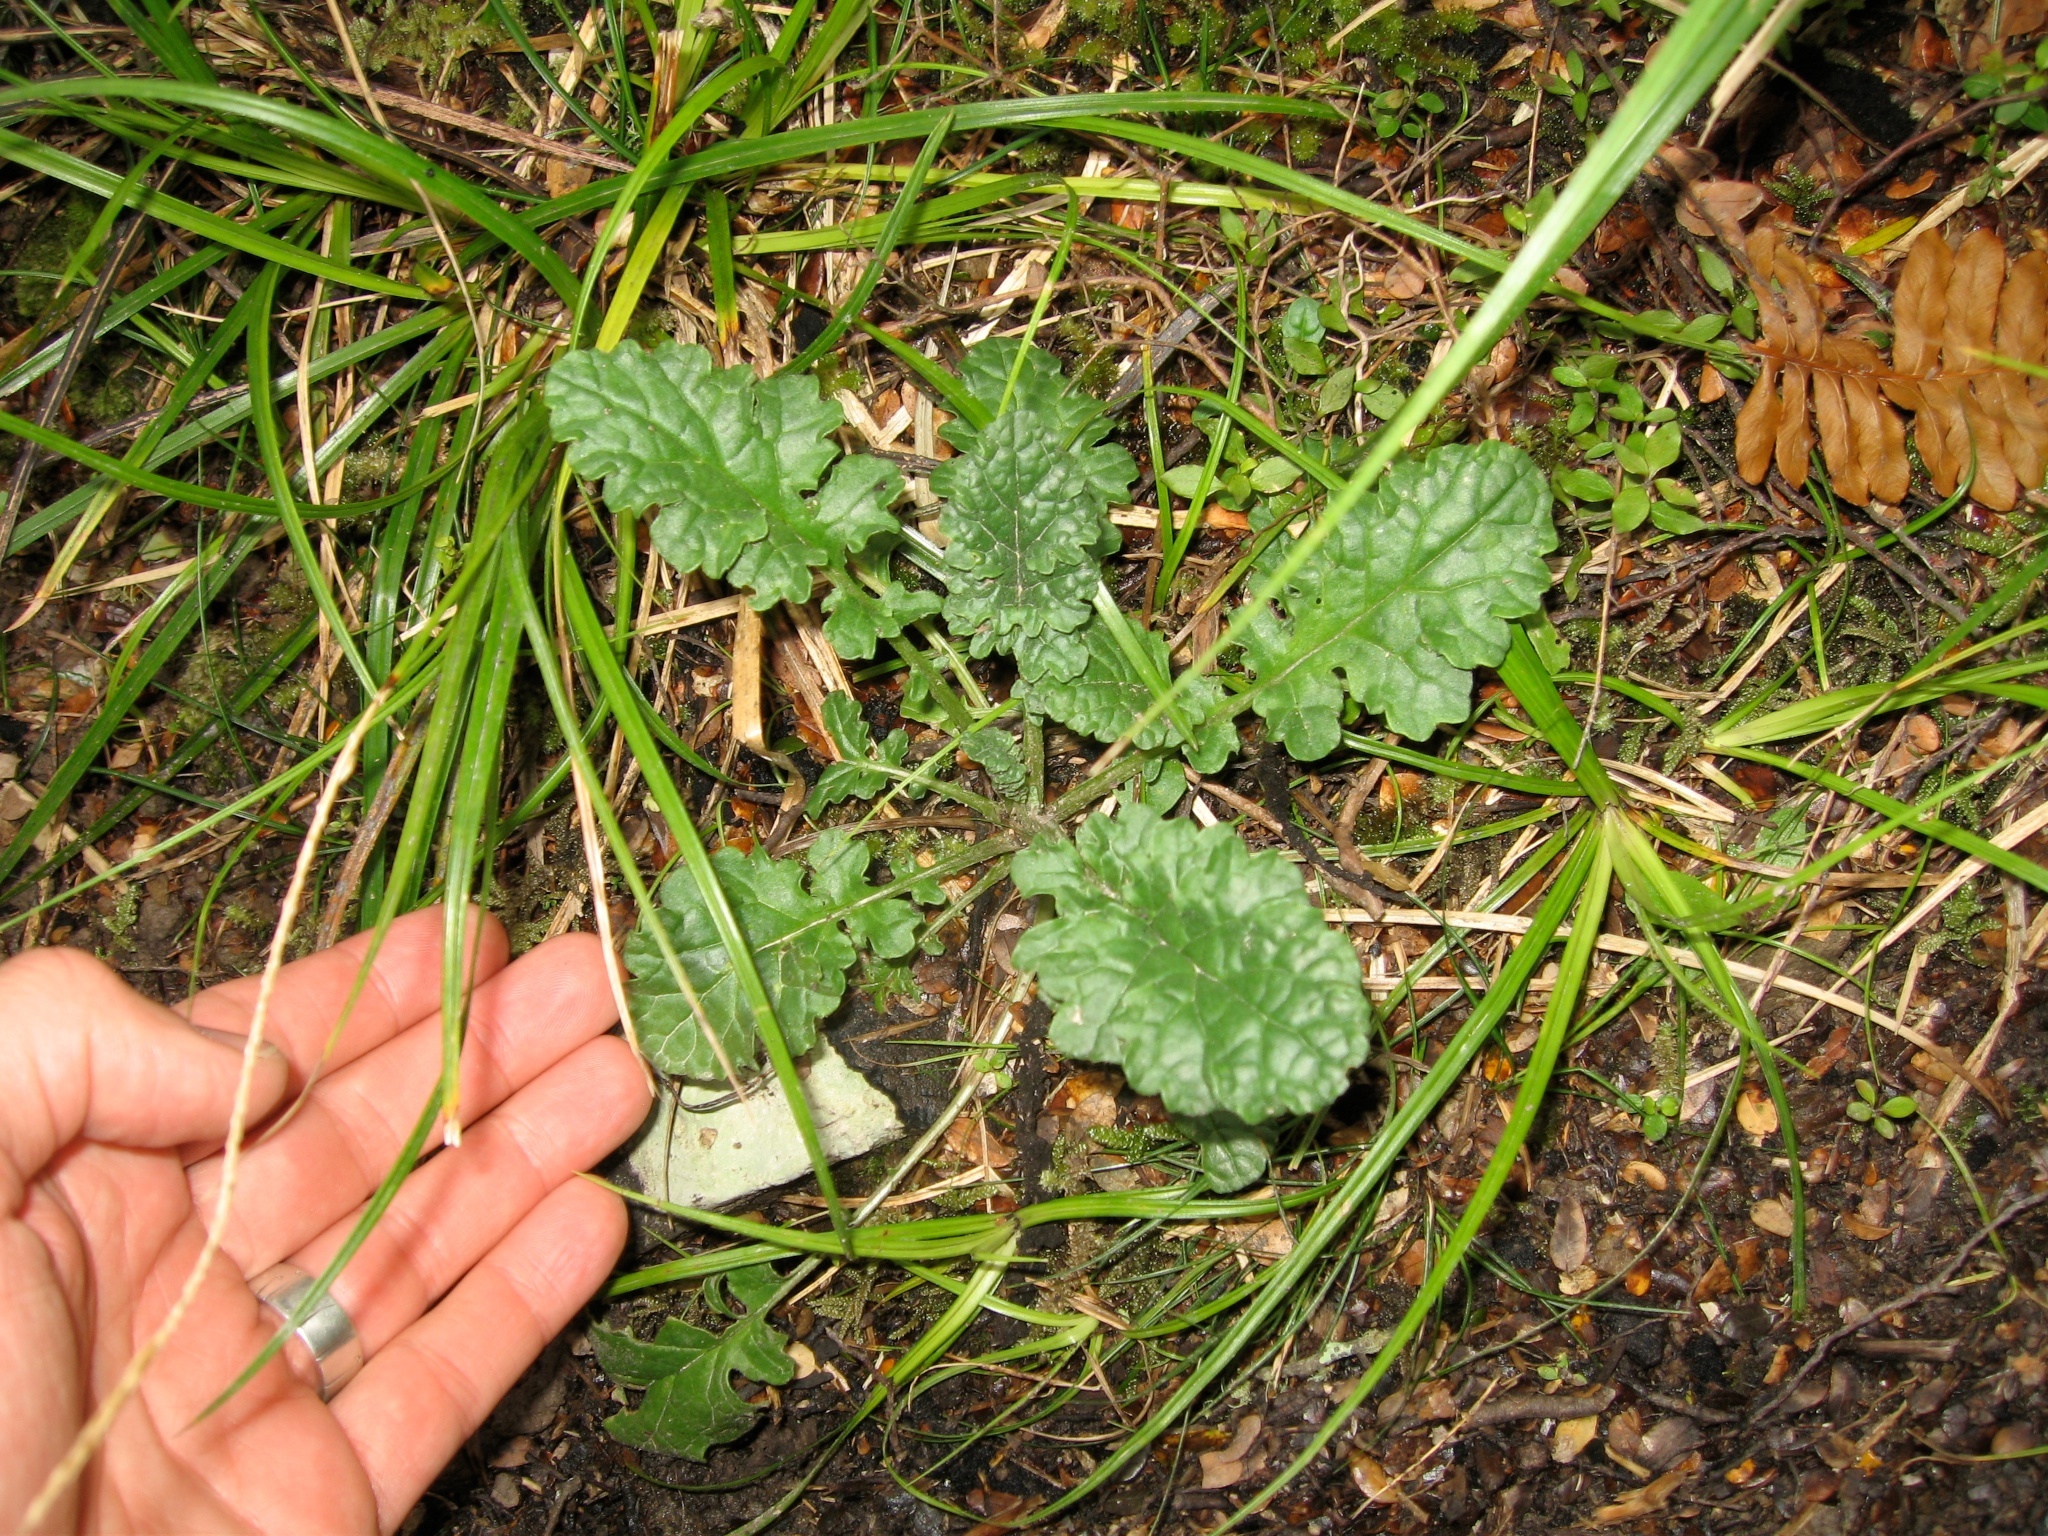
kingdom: Plantae
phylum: Tracheophyta
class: Magnoliopsida
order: Asterales
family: Asteraceae
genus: Jacobaea
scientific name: Jacobaea vulgaris
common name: Stinking willie
